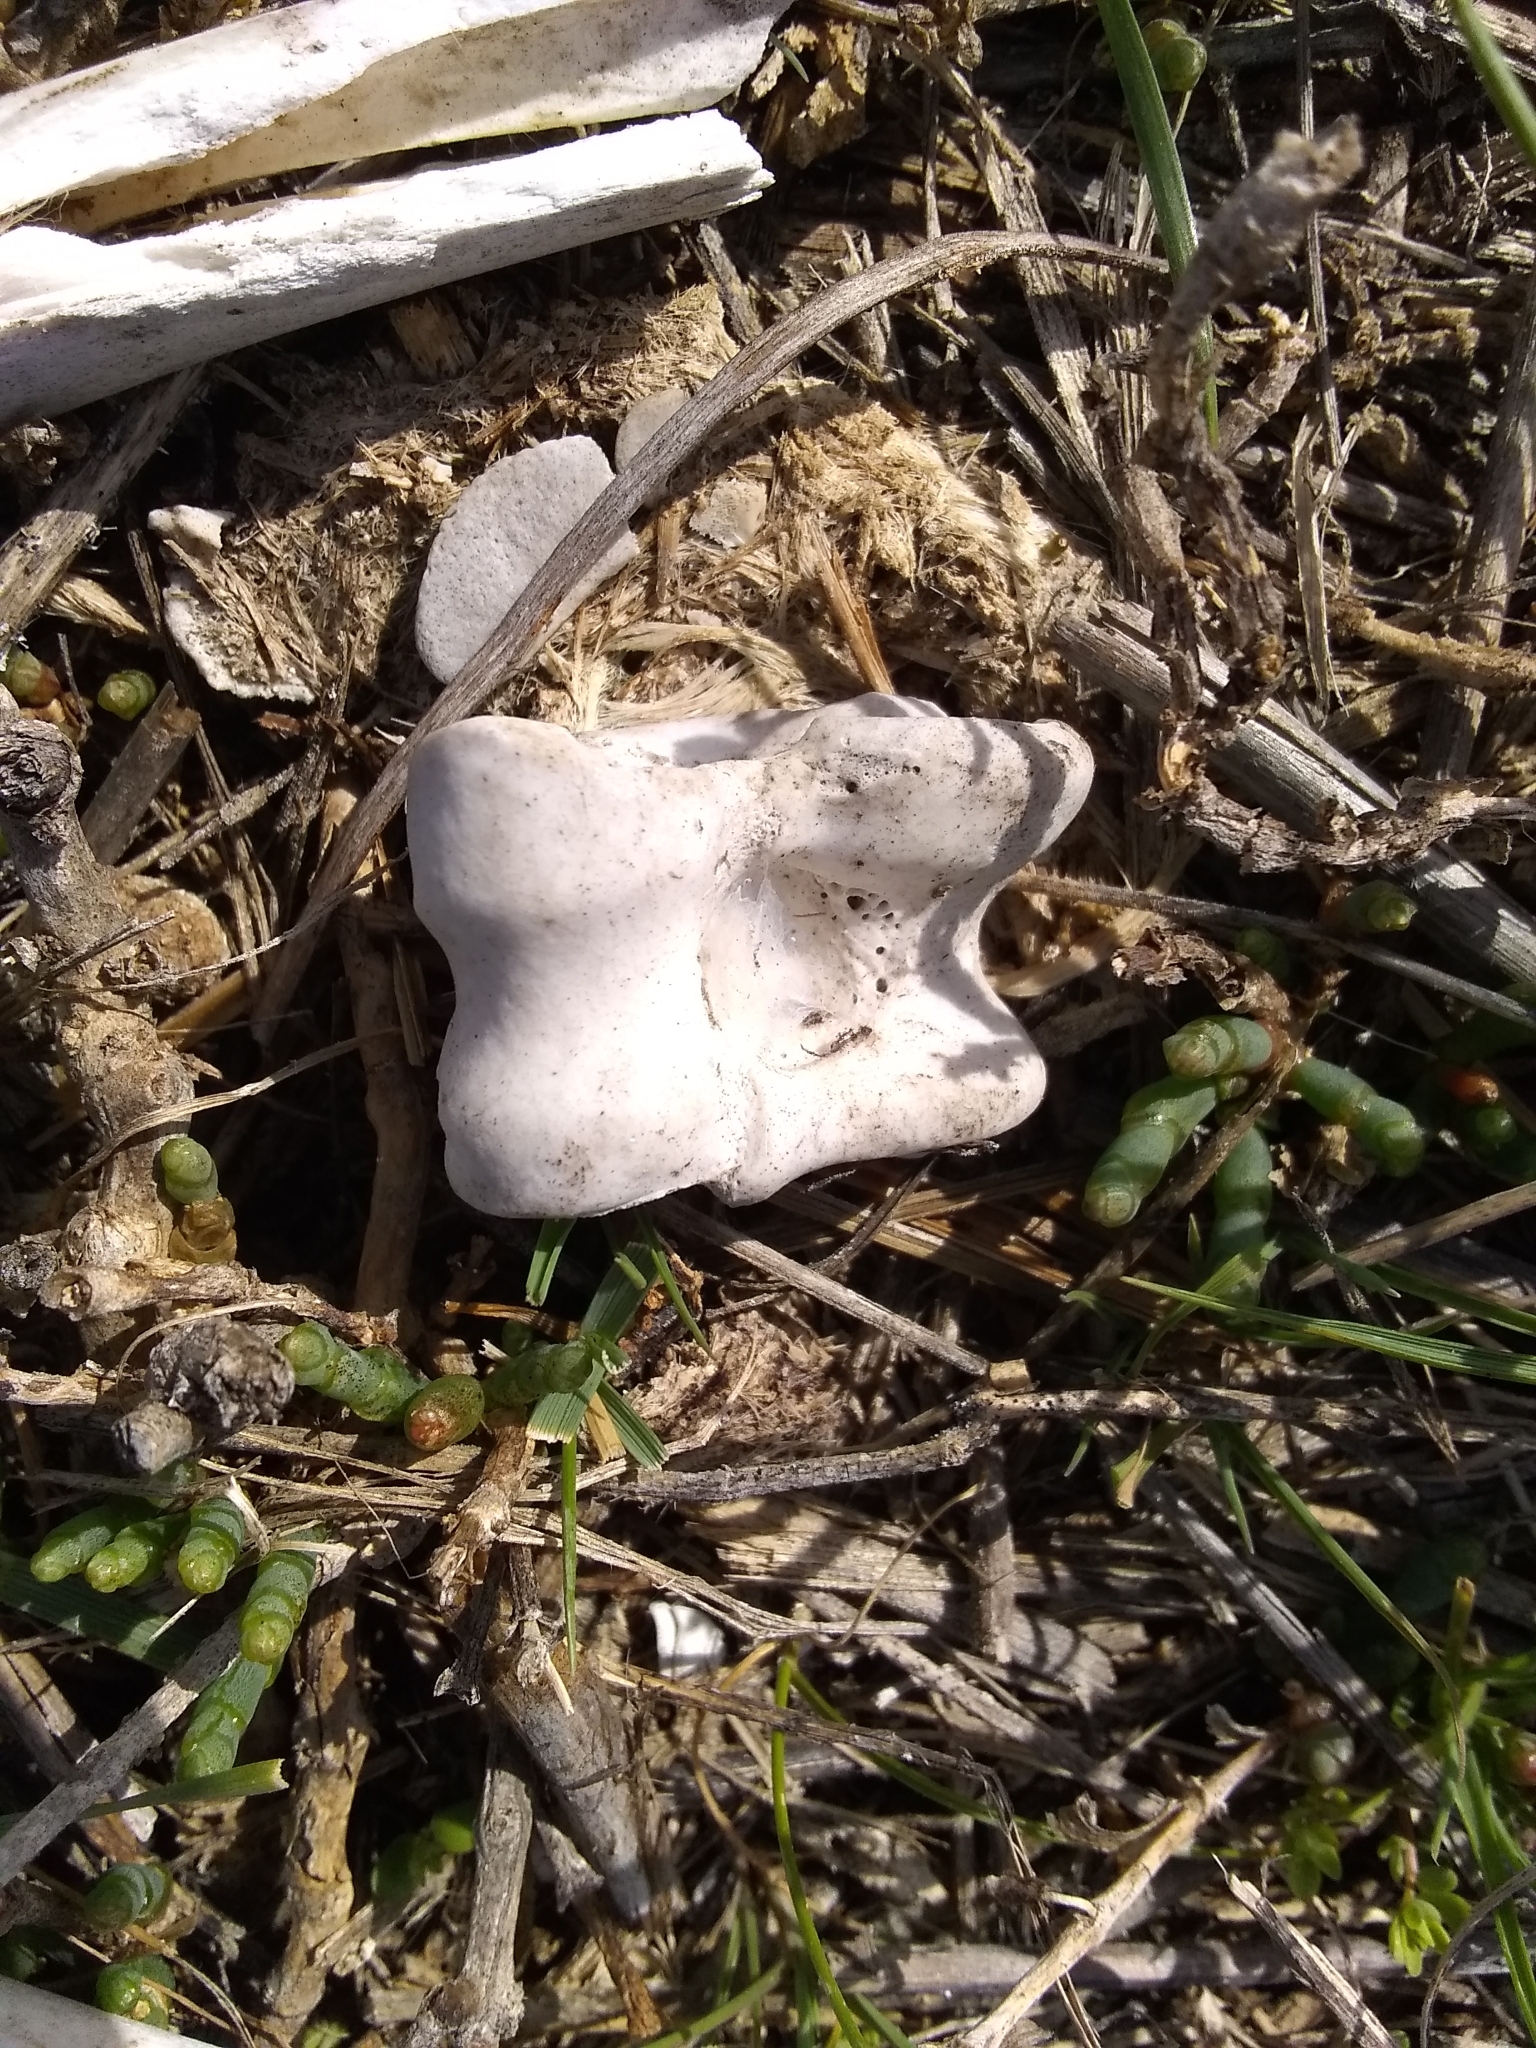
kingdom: Animalia
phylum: Chordata
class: Mammalia
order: Artiodactyla
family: Cervidae
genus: Odocoileus
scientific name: Odocoileus hemionus
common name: Mule deer
